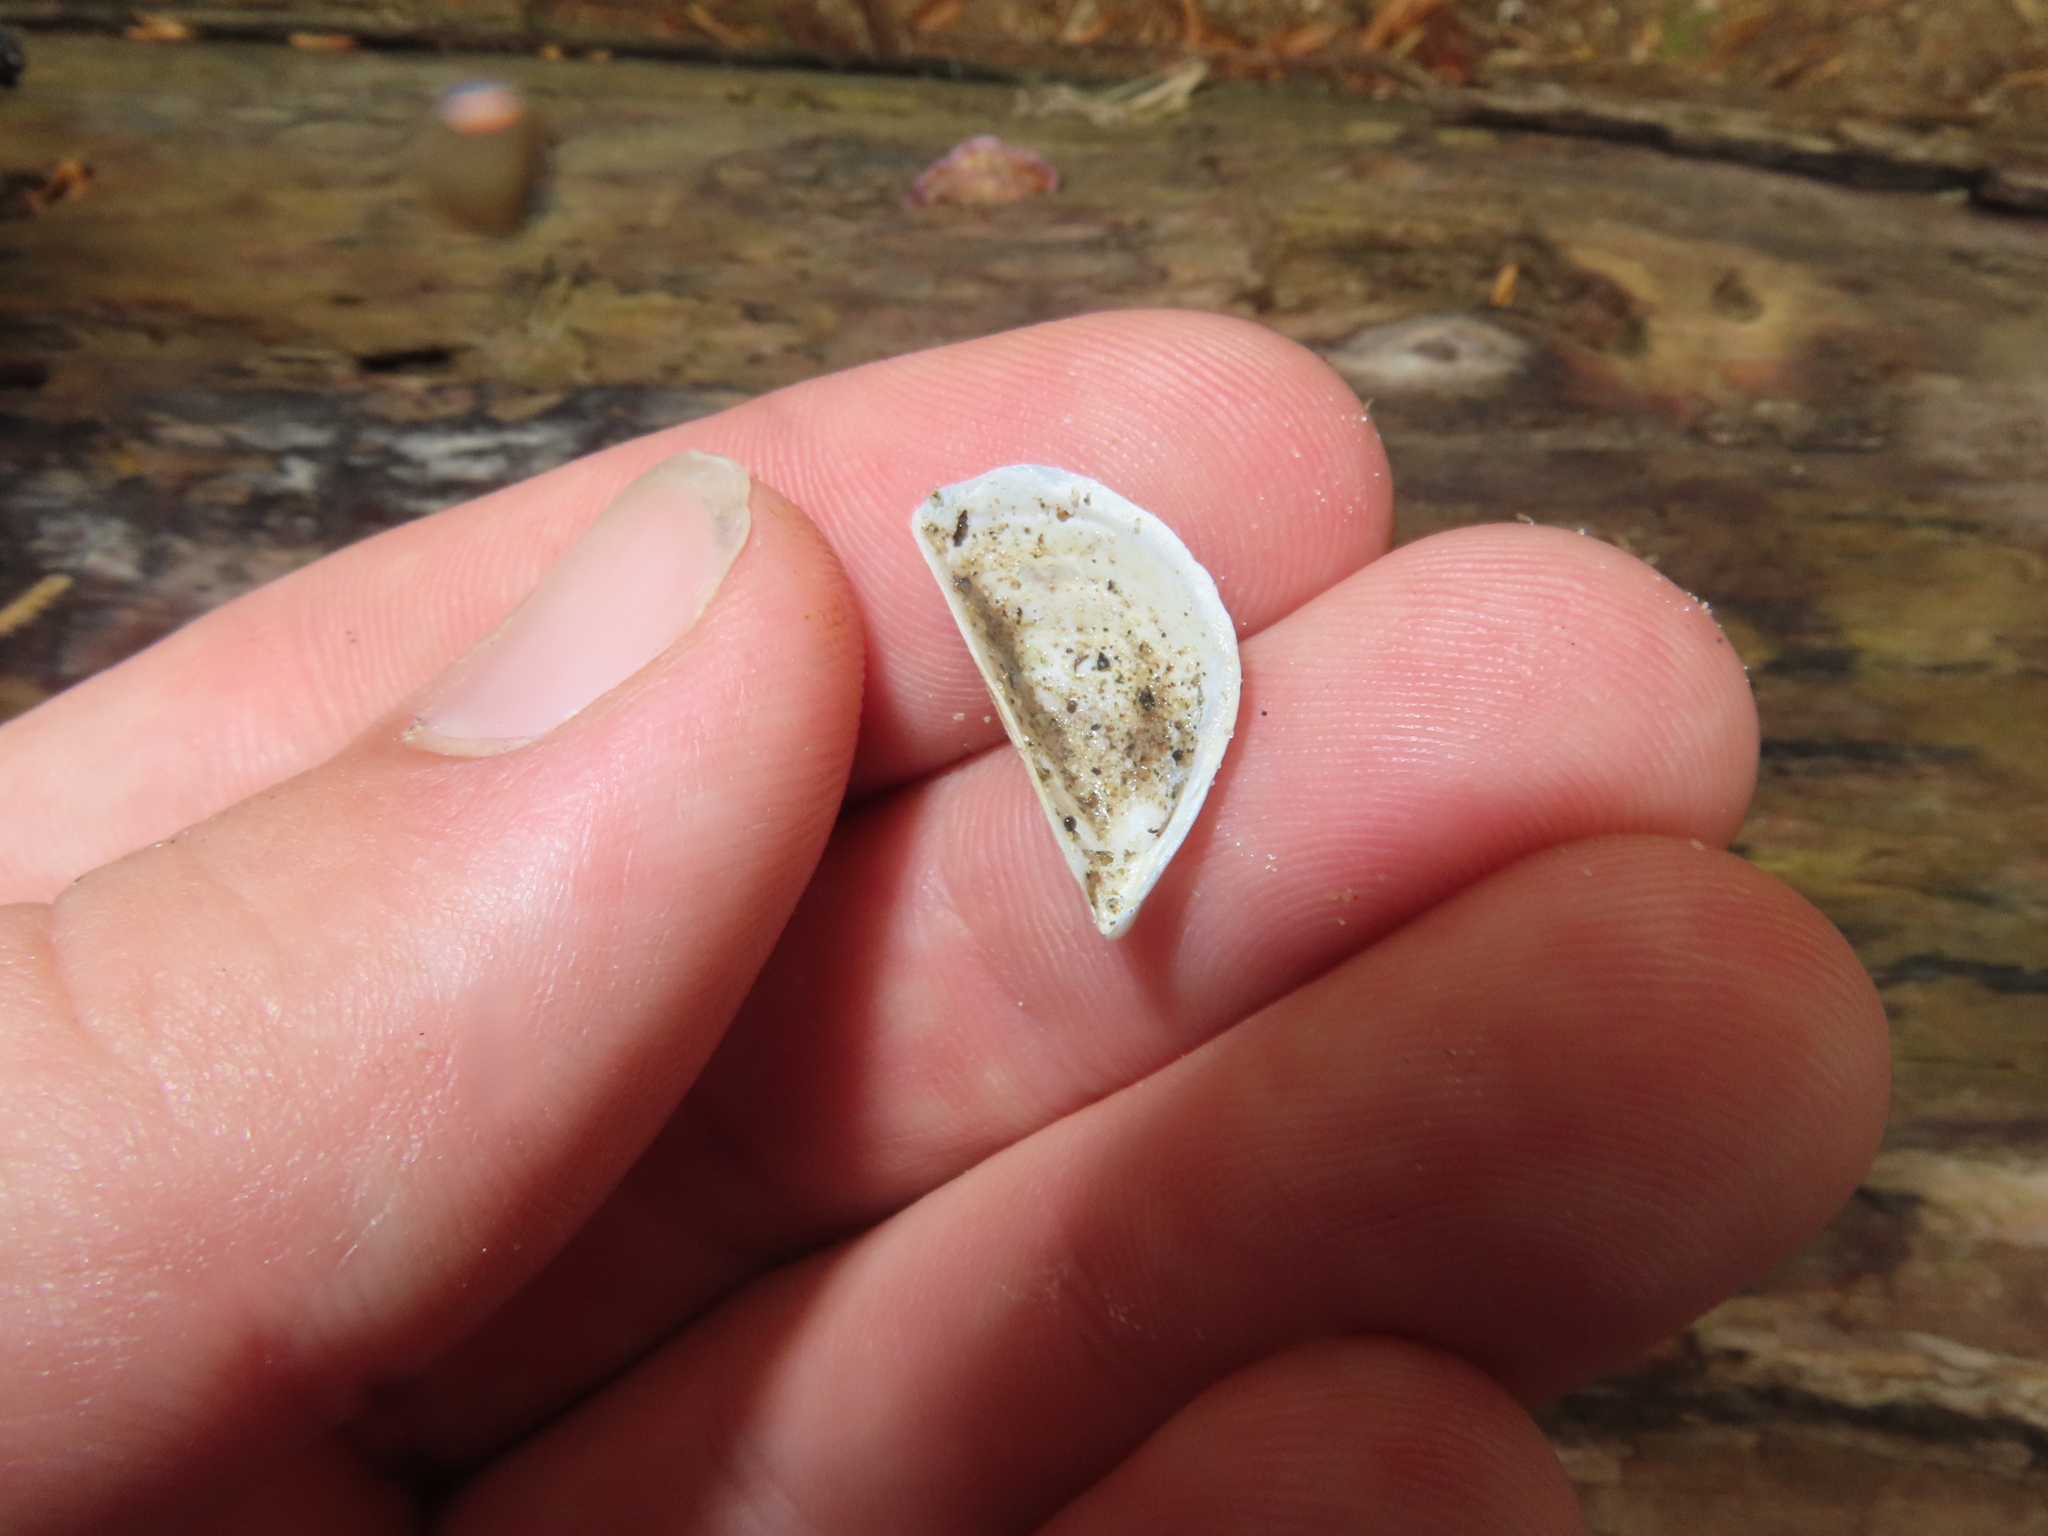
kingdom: Animalia
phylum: Mollusca
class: Bivalvia
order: Myida
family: Dreissenidae
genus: Dreissena
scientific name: Dreissena polymorpha
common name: Zebra mussel
